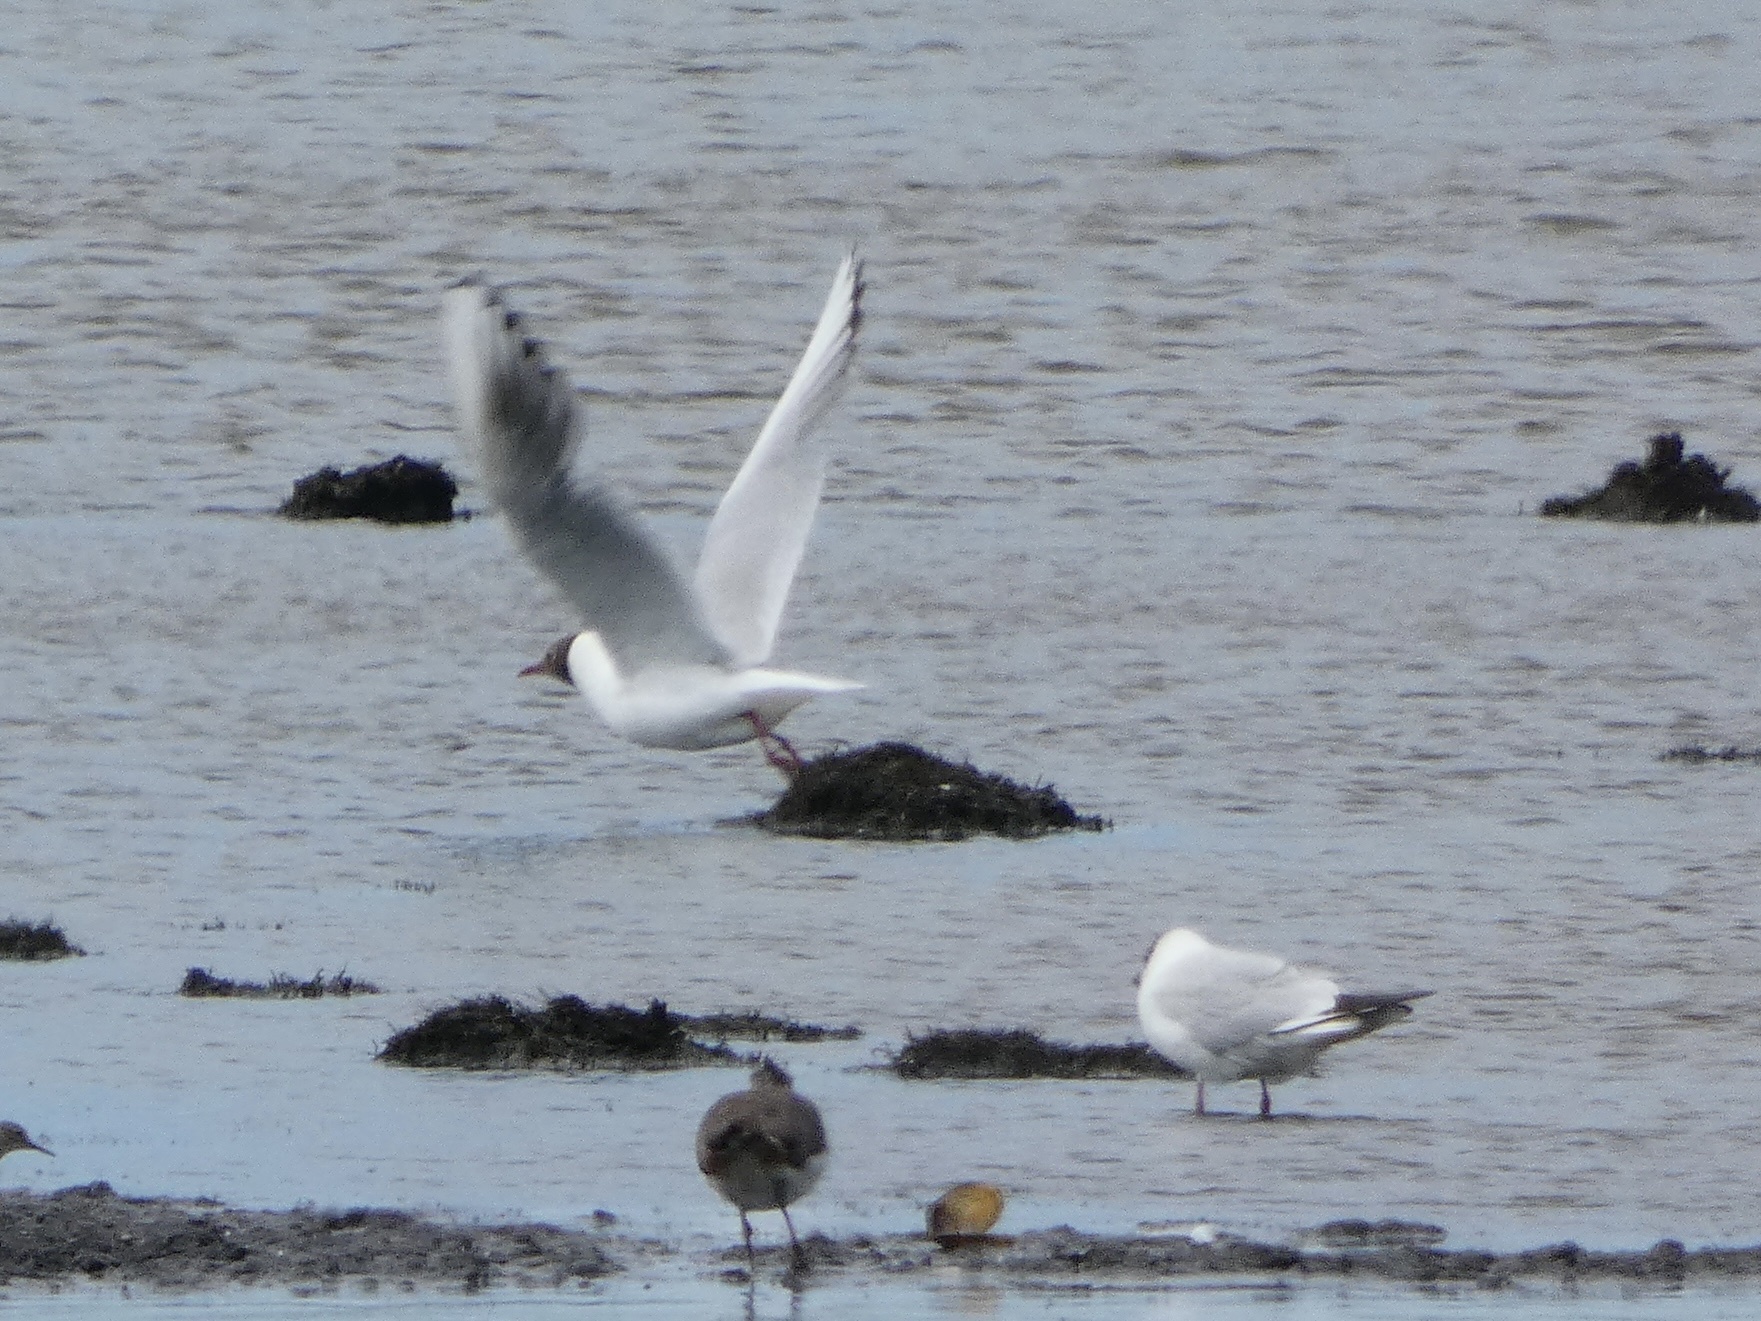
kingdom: Animalia
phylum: Chordata
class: Aves
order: Charadriiformes
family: Laridae
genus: Chroicocephalus
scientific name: Chroicocephalus ridibundus
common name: Black-headed gull
